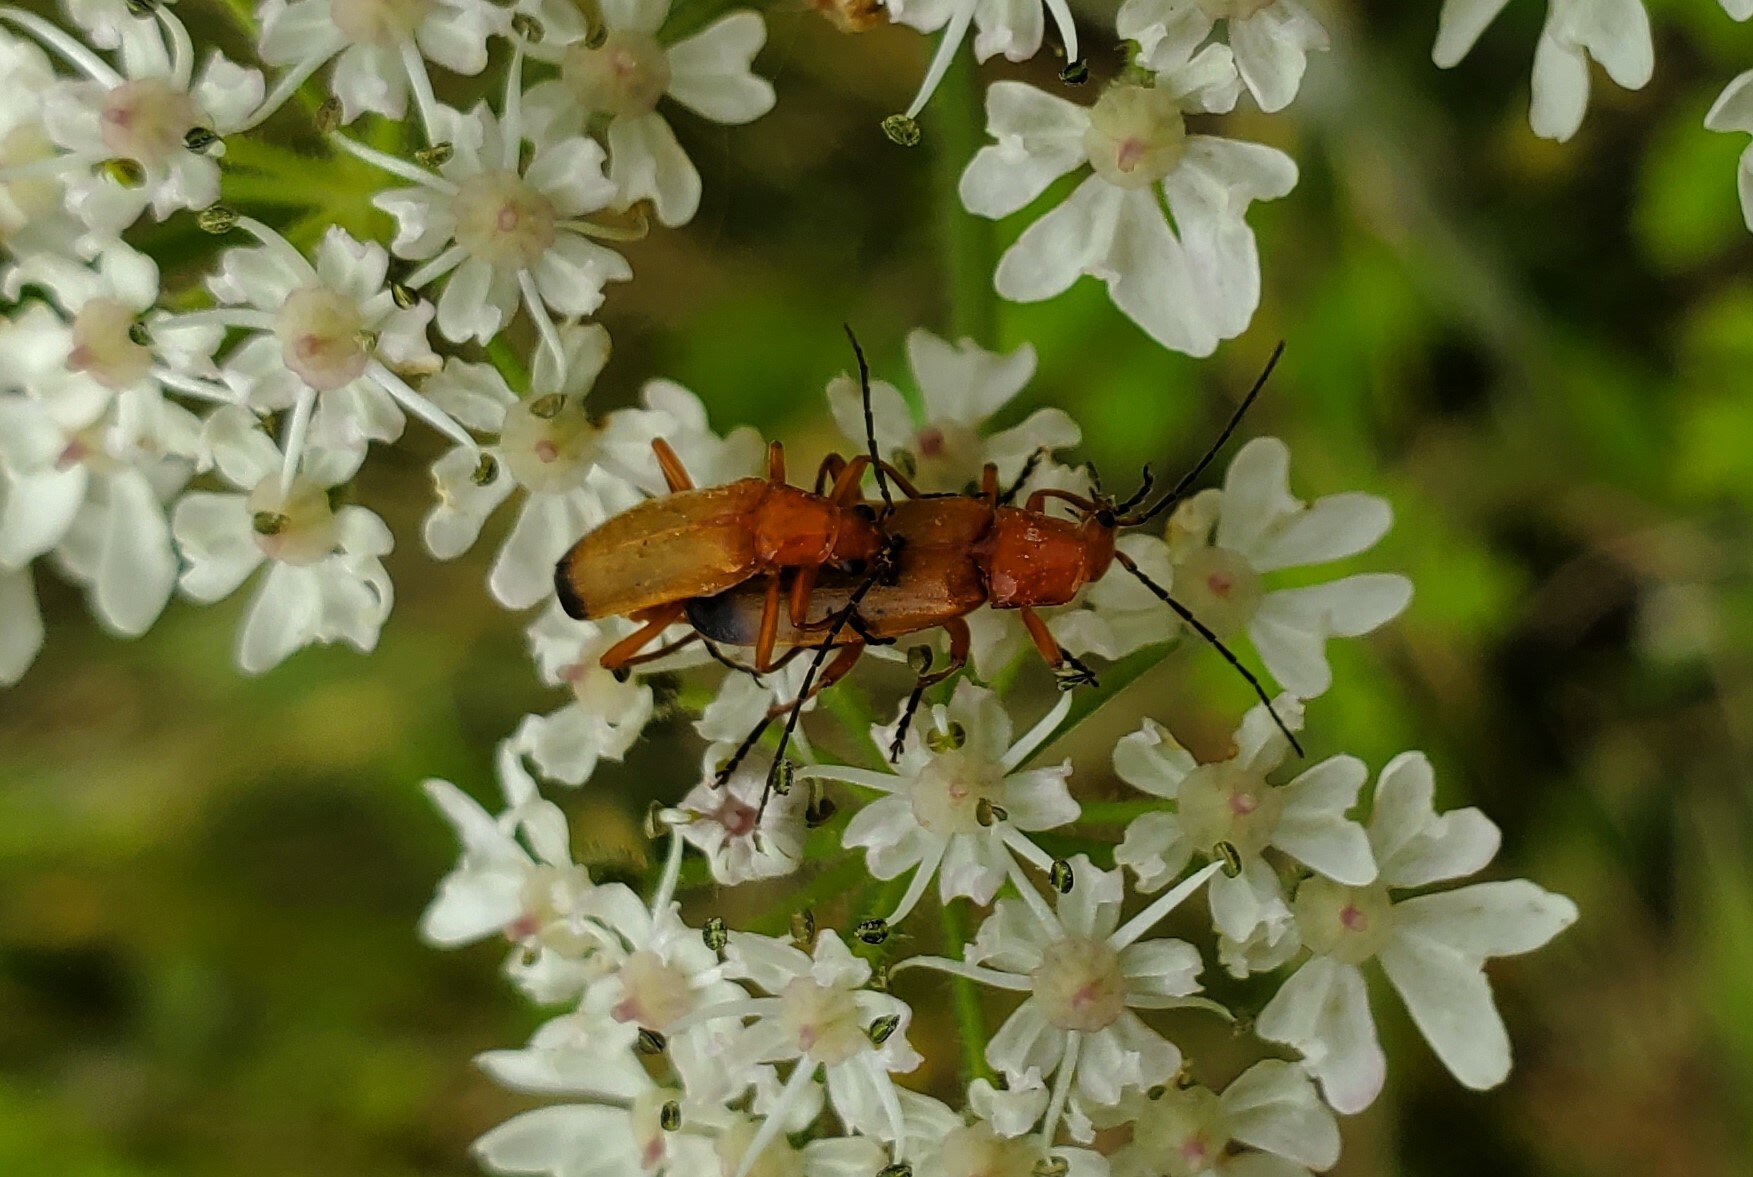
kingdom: Animalia
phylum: Arthropoda
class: Insecta
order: Coleoptera
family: Cantharidae
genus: Rhagonycha
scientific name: Rhagonycha fulva
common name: Common red soldier beetle
